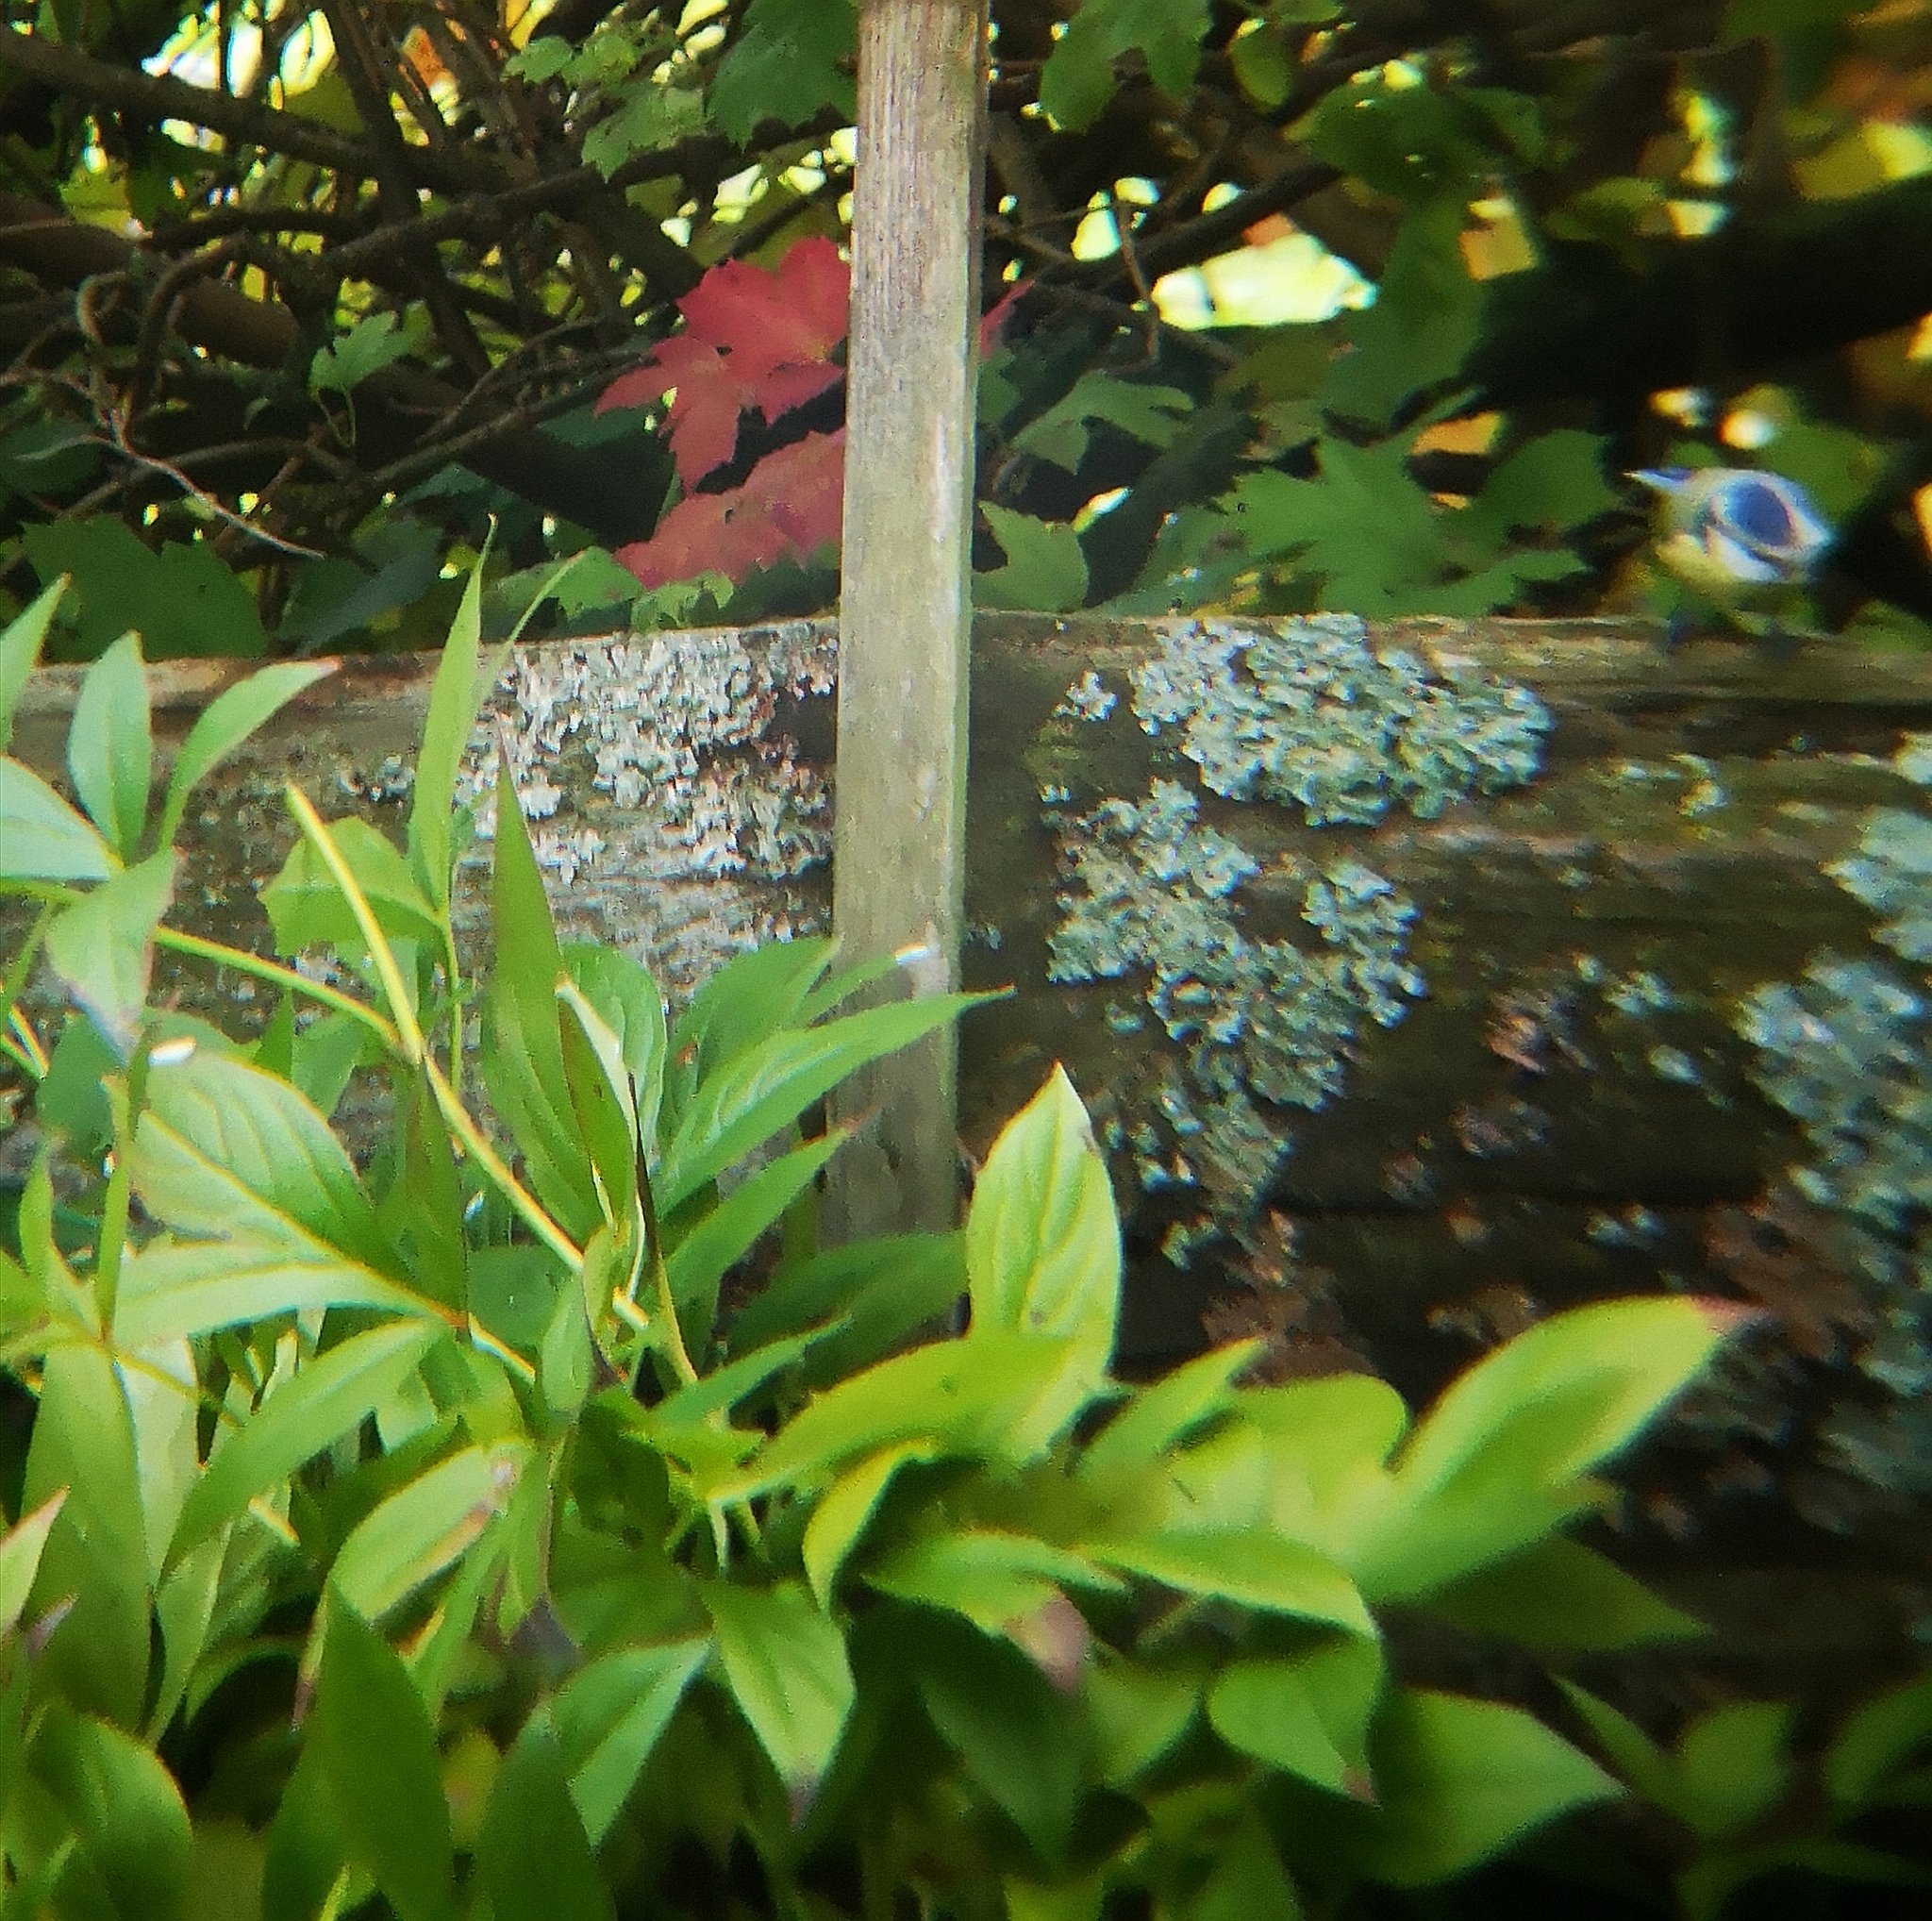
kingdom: Animalia
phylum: Chordata
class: Aves
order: Passeriformes
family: Paridae
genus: Cyanistes
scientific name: Cyanistes caeruleus
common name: Eurasian blue tit
